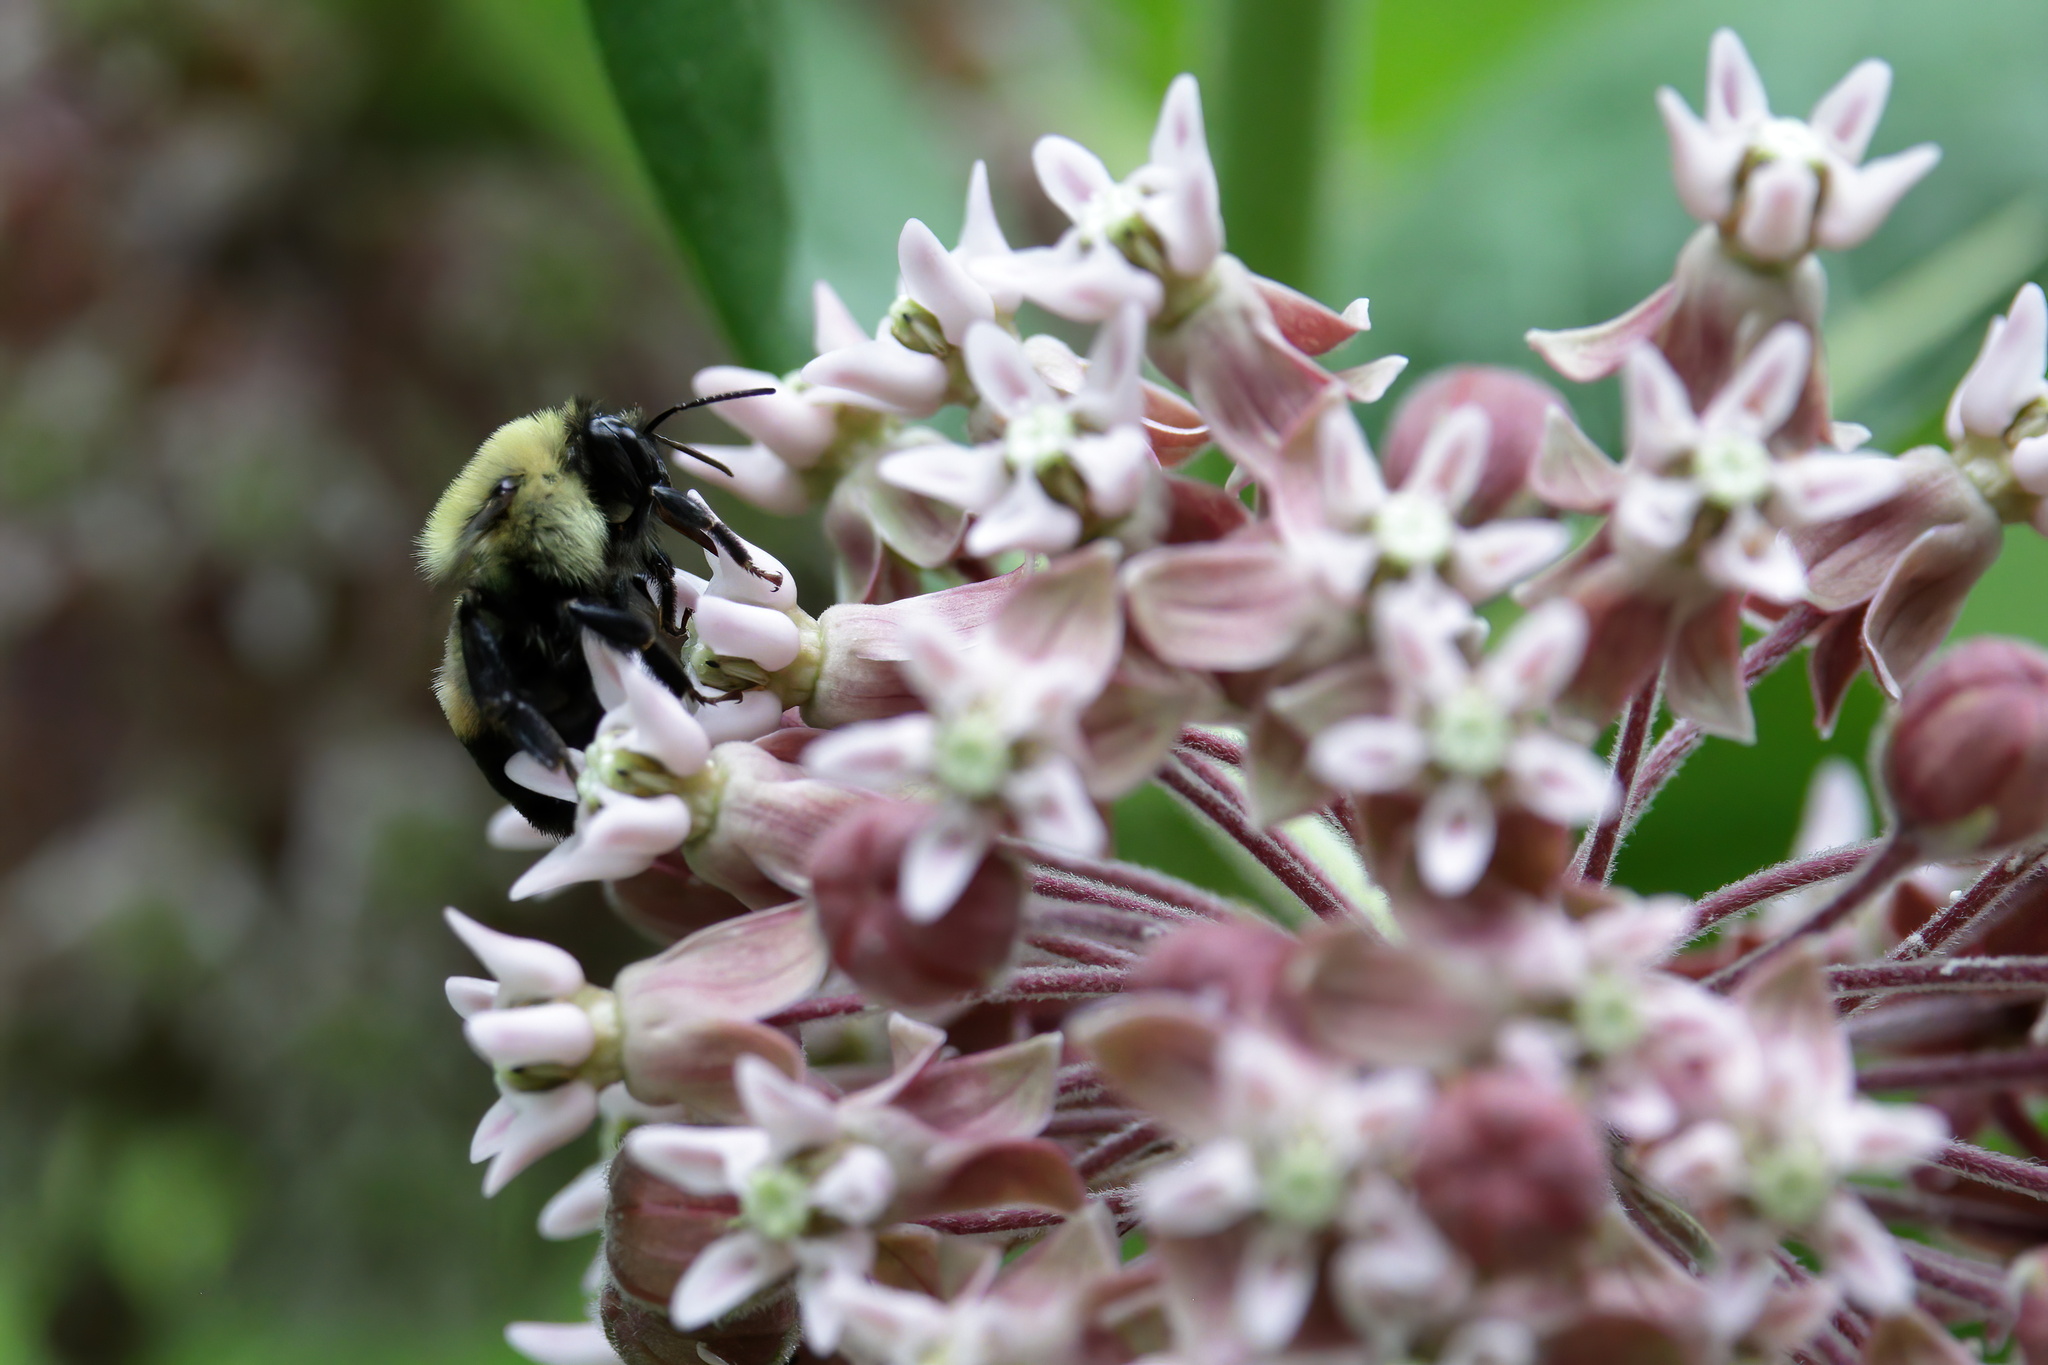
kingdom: Animalia
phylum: Arthropoda
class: Insecta
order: Hymenoptera
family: Apidae
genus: Bombus
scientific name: Bombus griseocollis
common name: Brown-belted bumble bee
